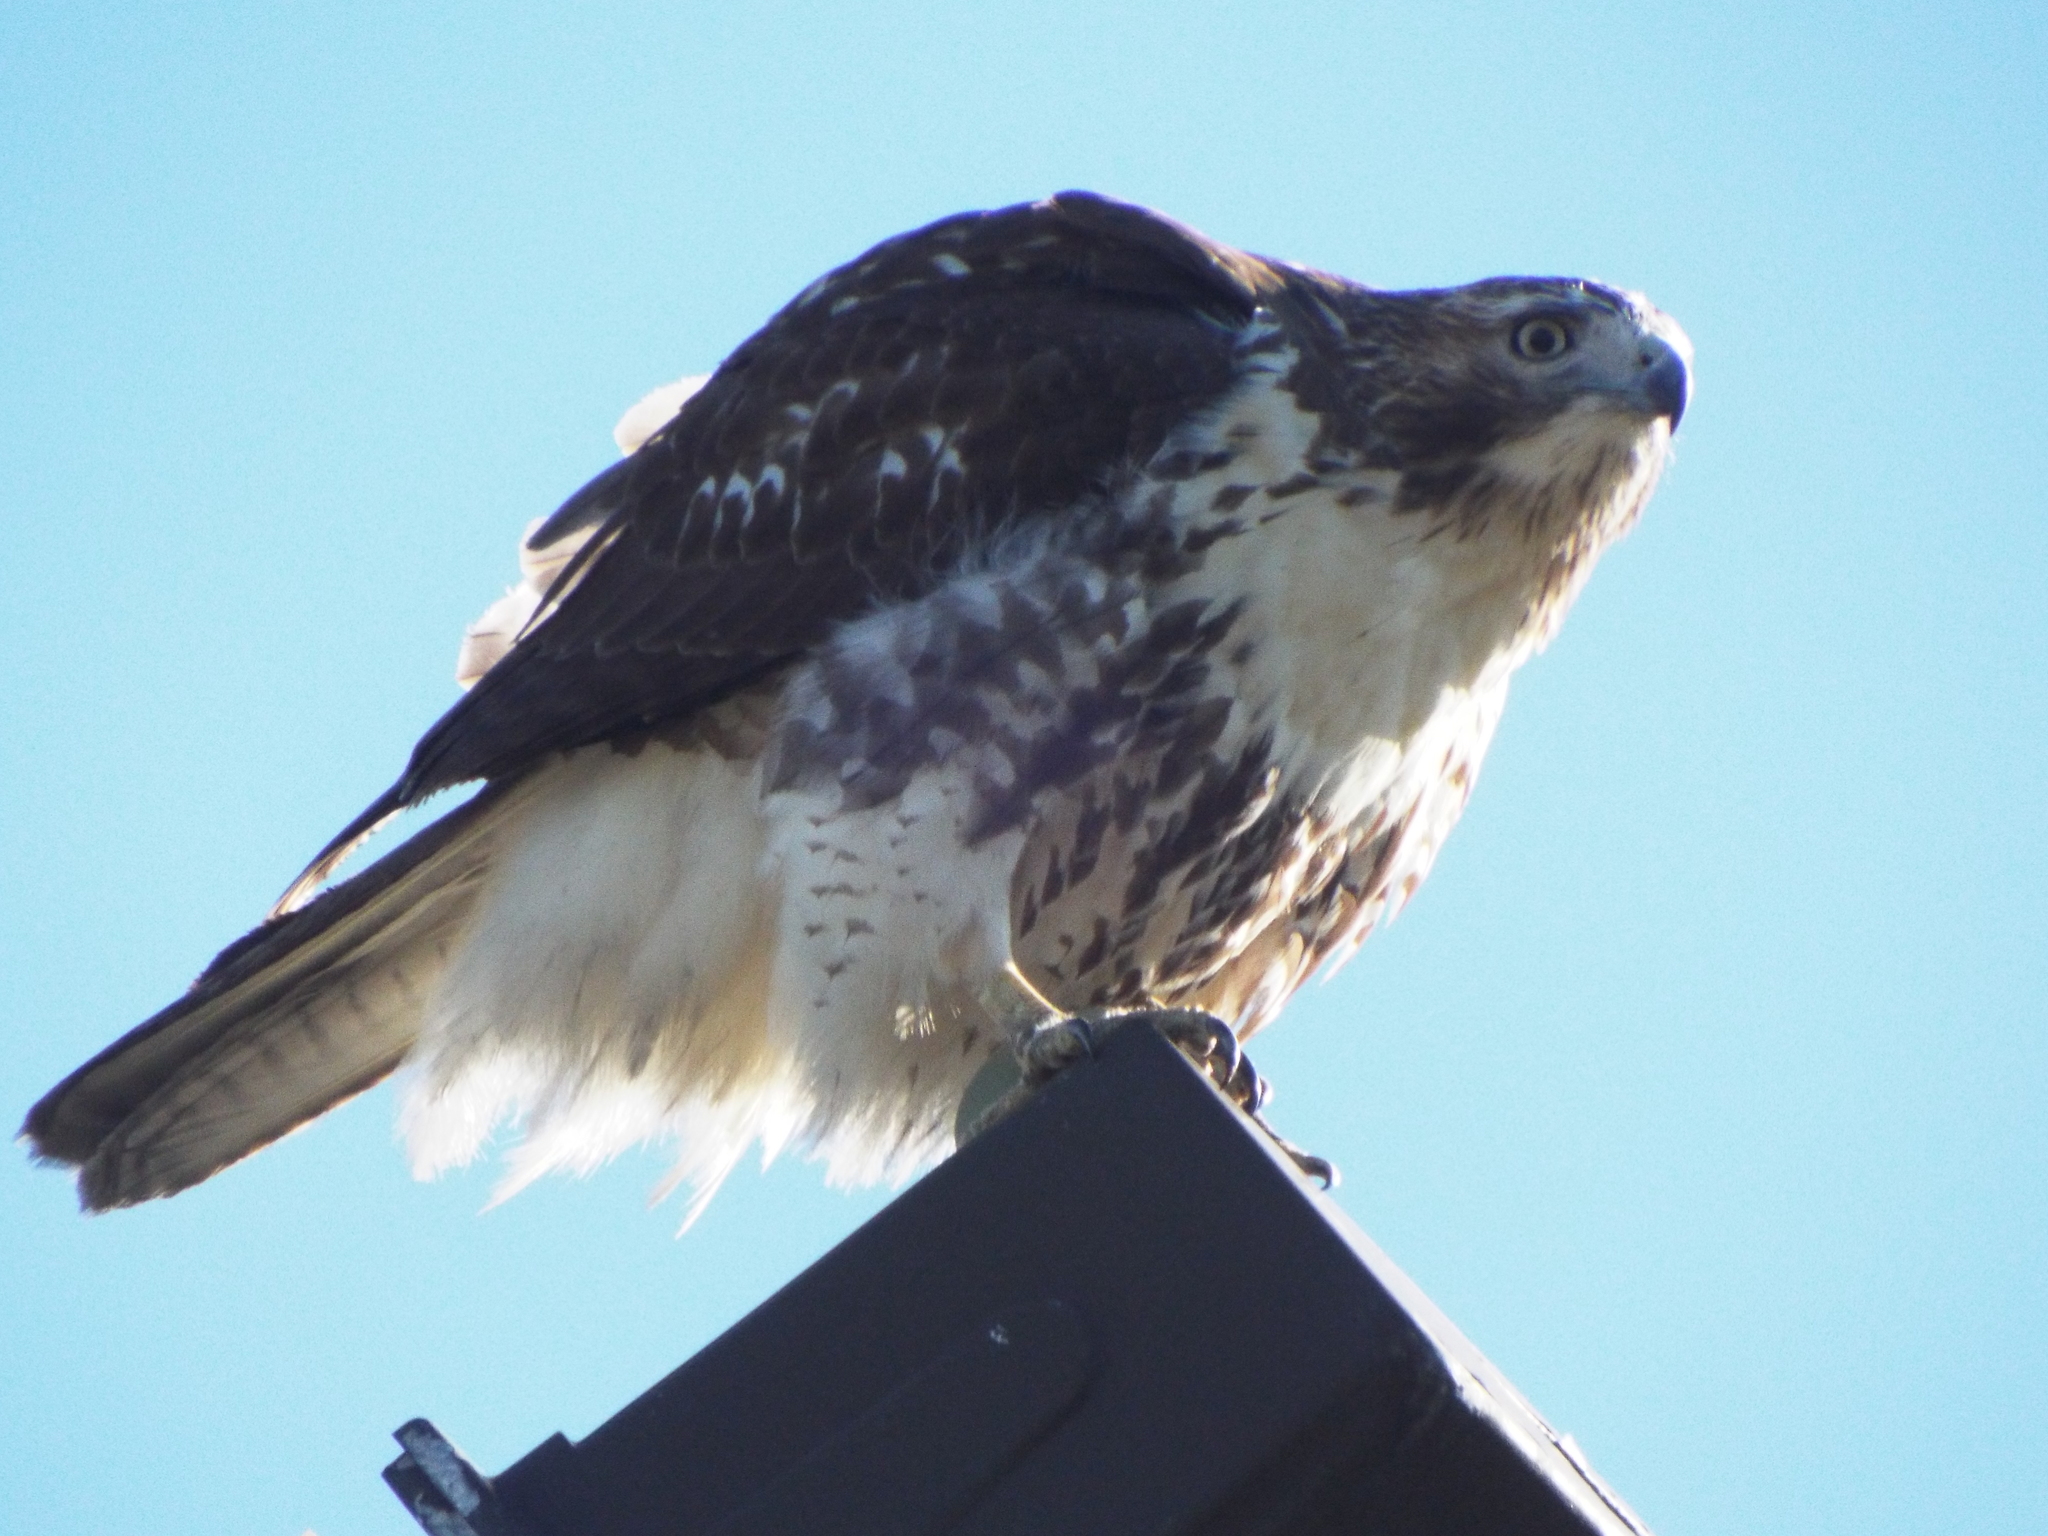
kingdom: Animalia
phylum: Chordata
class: Aves
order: Accipitriformes
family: Accipitridae
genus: Buteo
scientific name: Buteo jamaicensis
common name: Red-tailed hawk
